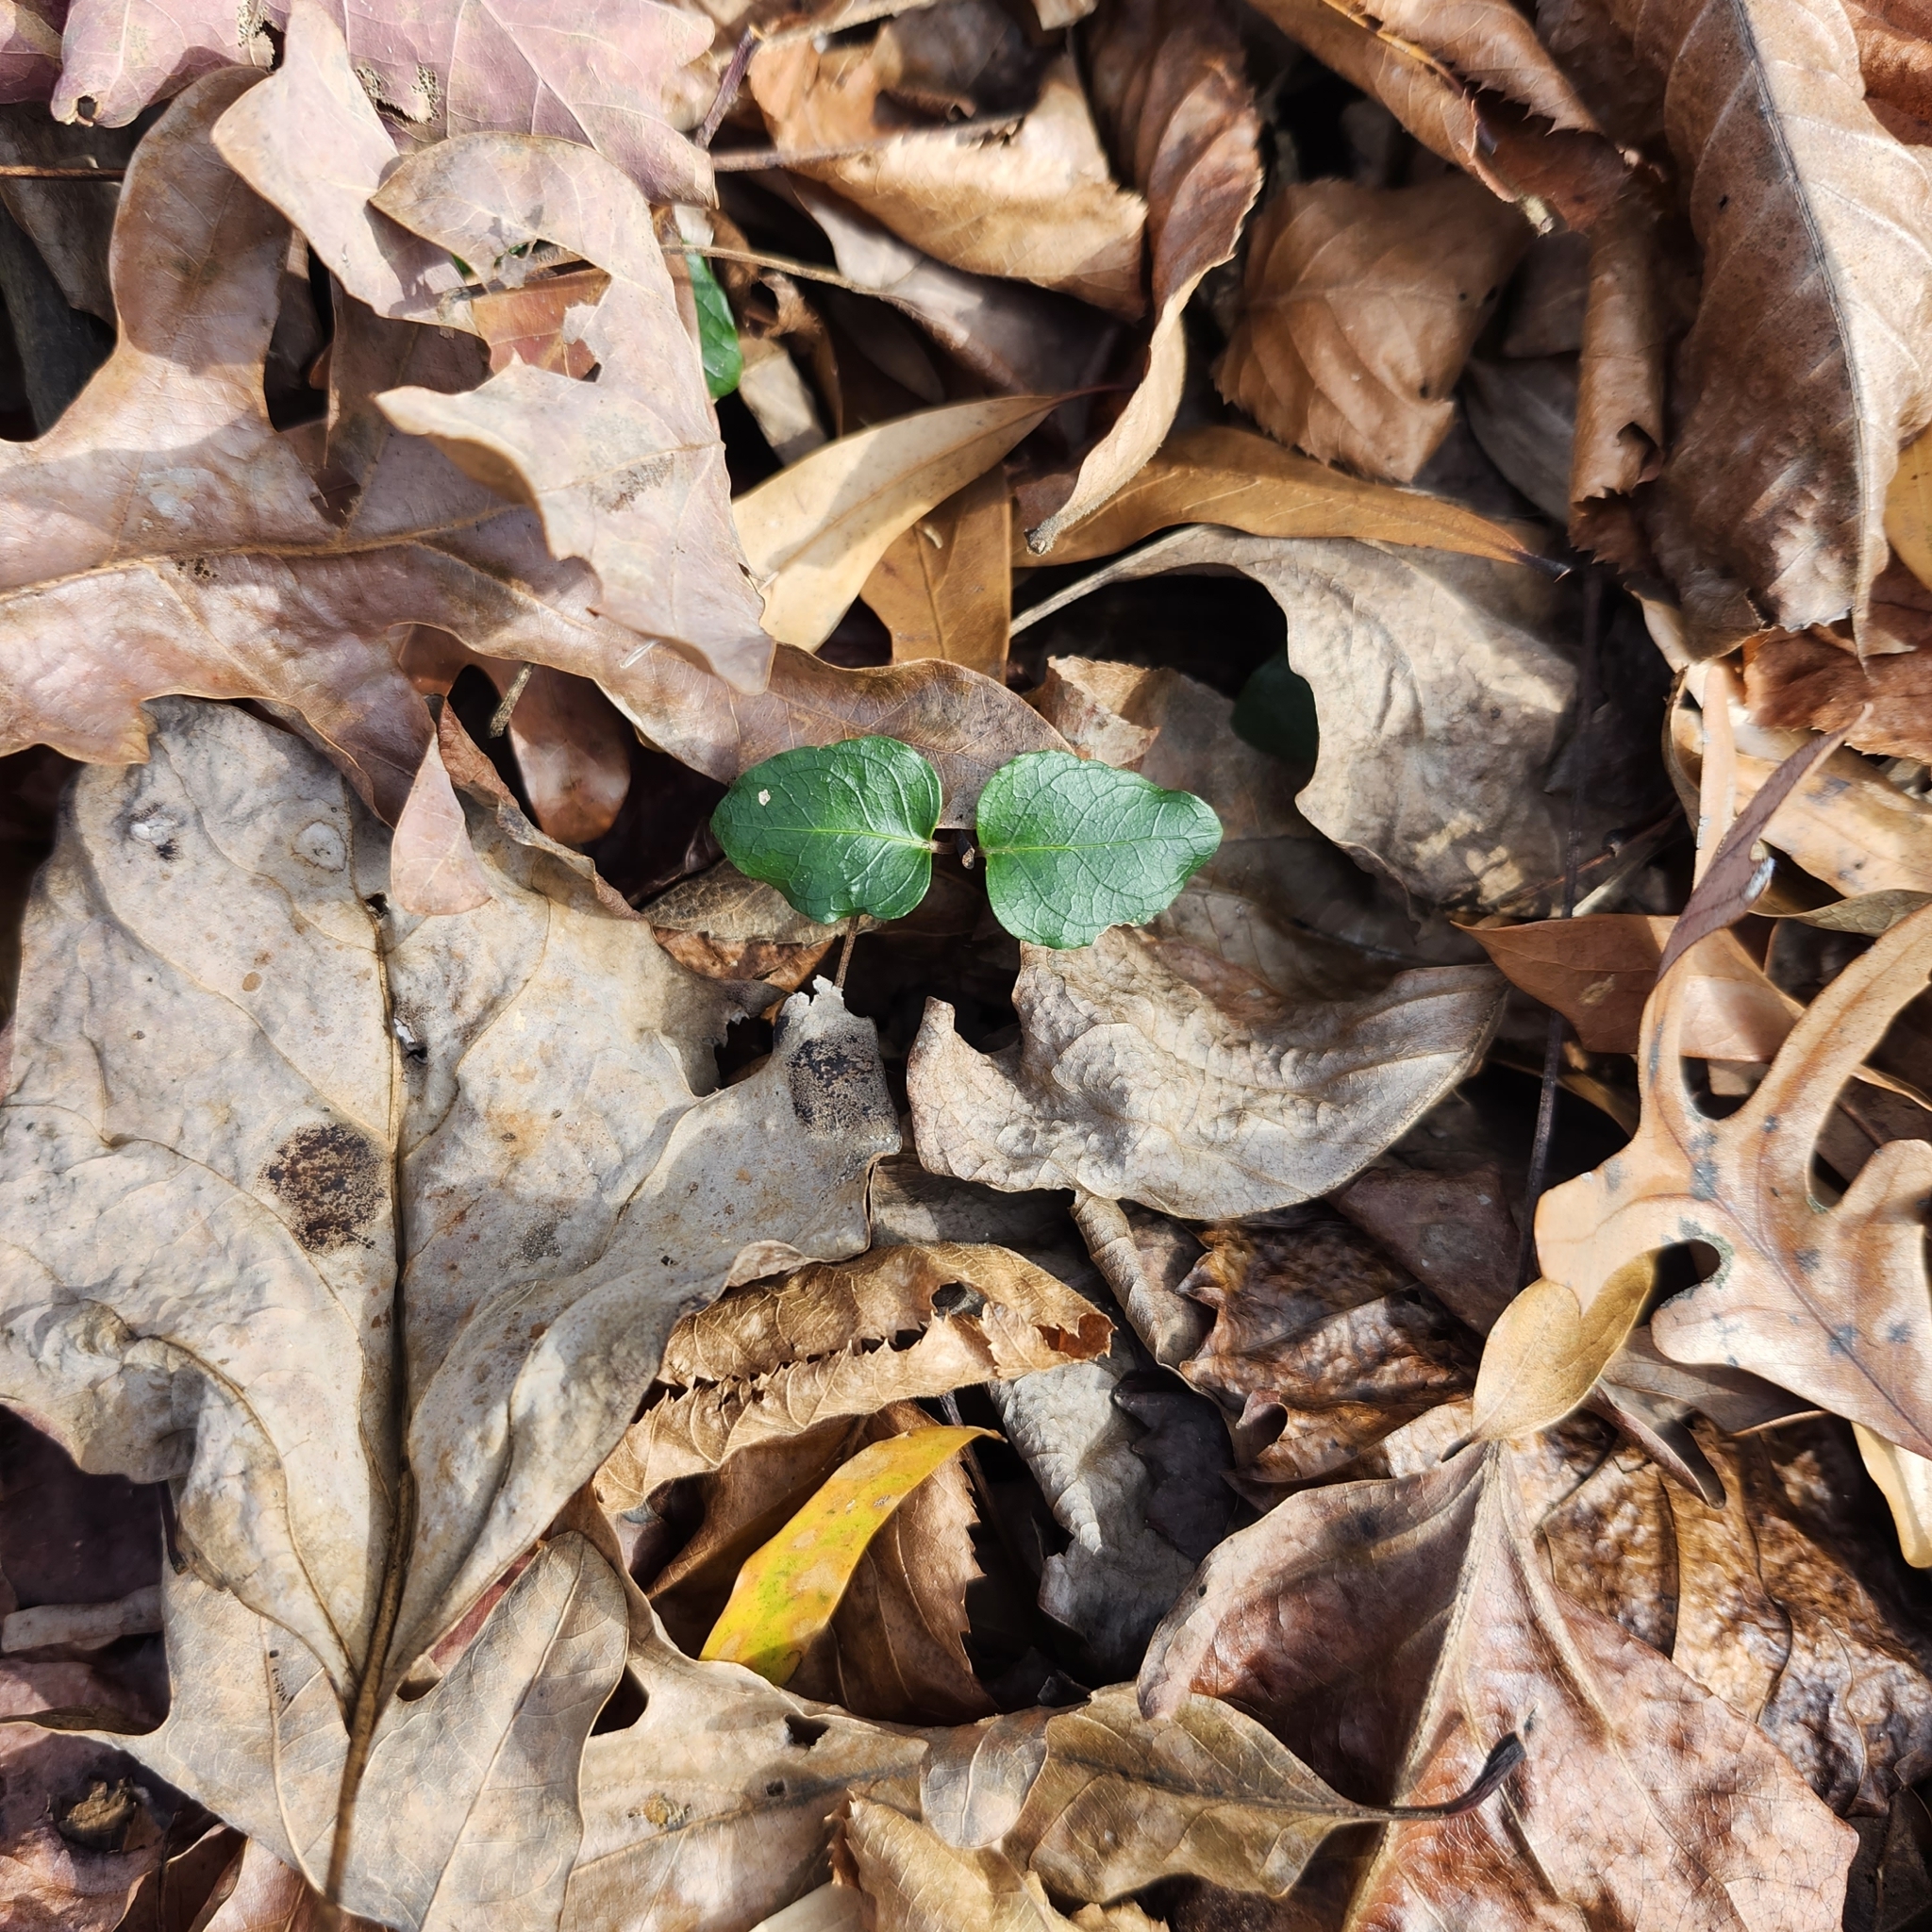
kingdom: Plantae
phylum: Tracheophyta
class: Magnoliopsida
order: Gentianales
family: Rubiaceae
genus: Mitchella
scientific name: Mitchella repens
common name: Partridge-berry
